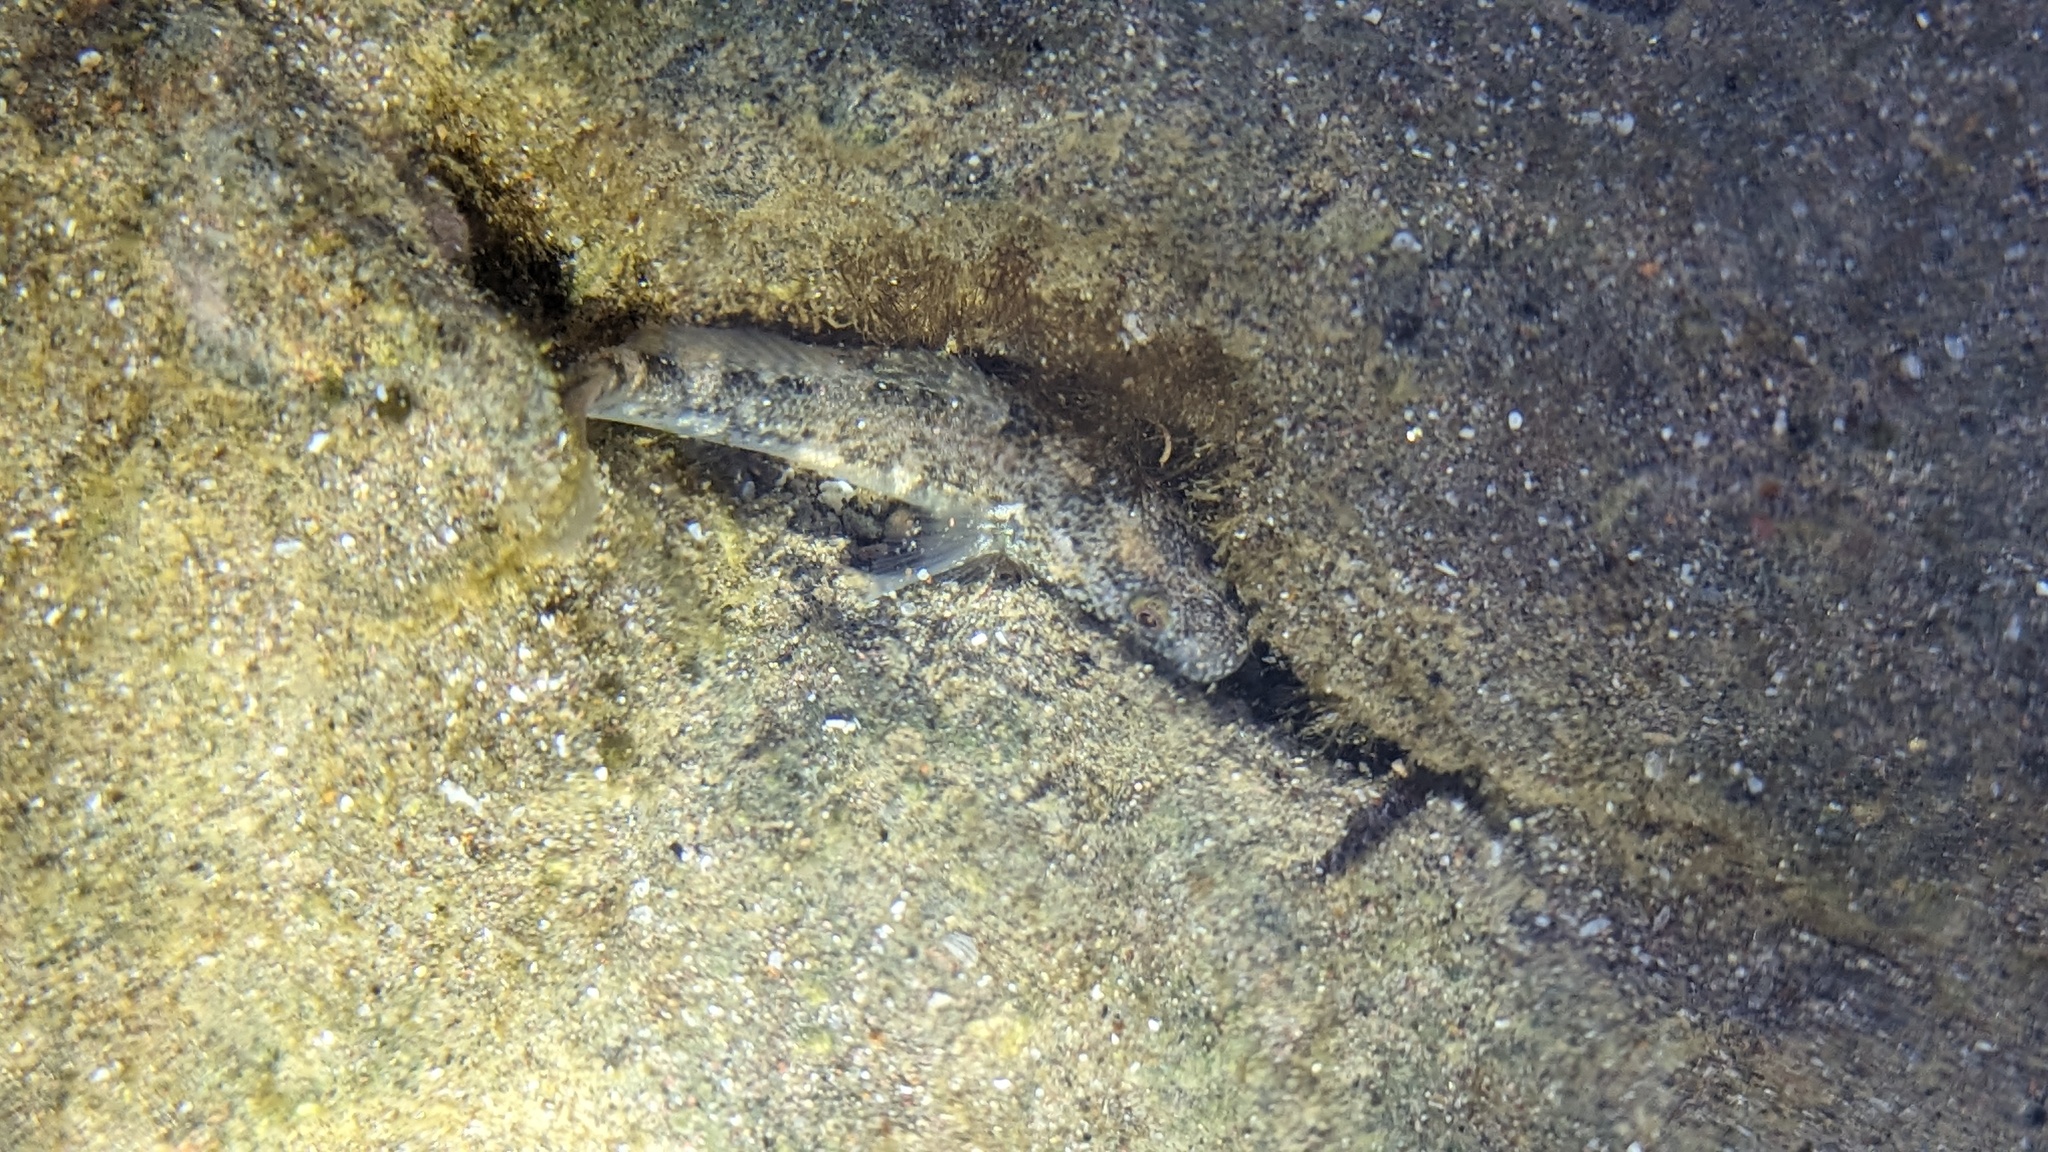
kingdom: Animalia
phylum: Chordata
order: Perciformes
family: Gobiidae
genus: Gillichthys
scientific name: Gillichthys seta
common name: Shortjaw mudsucker
